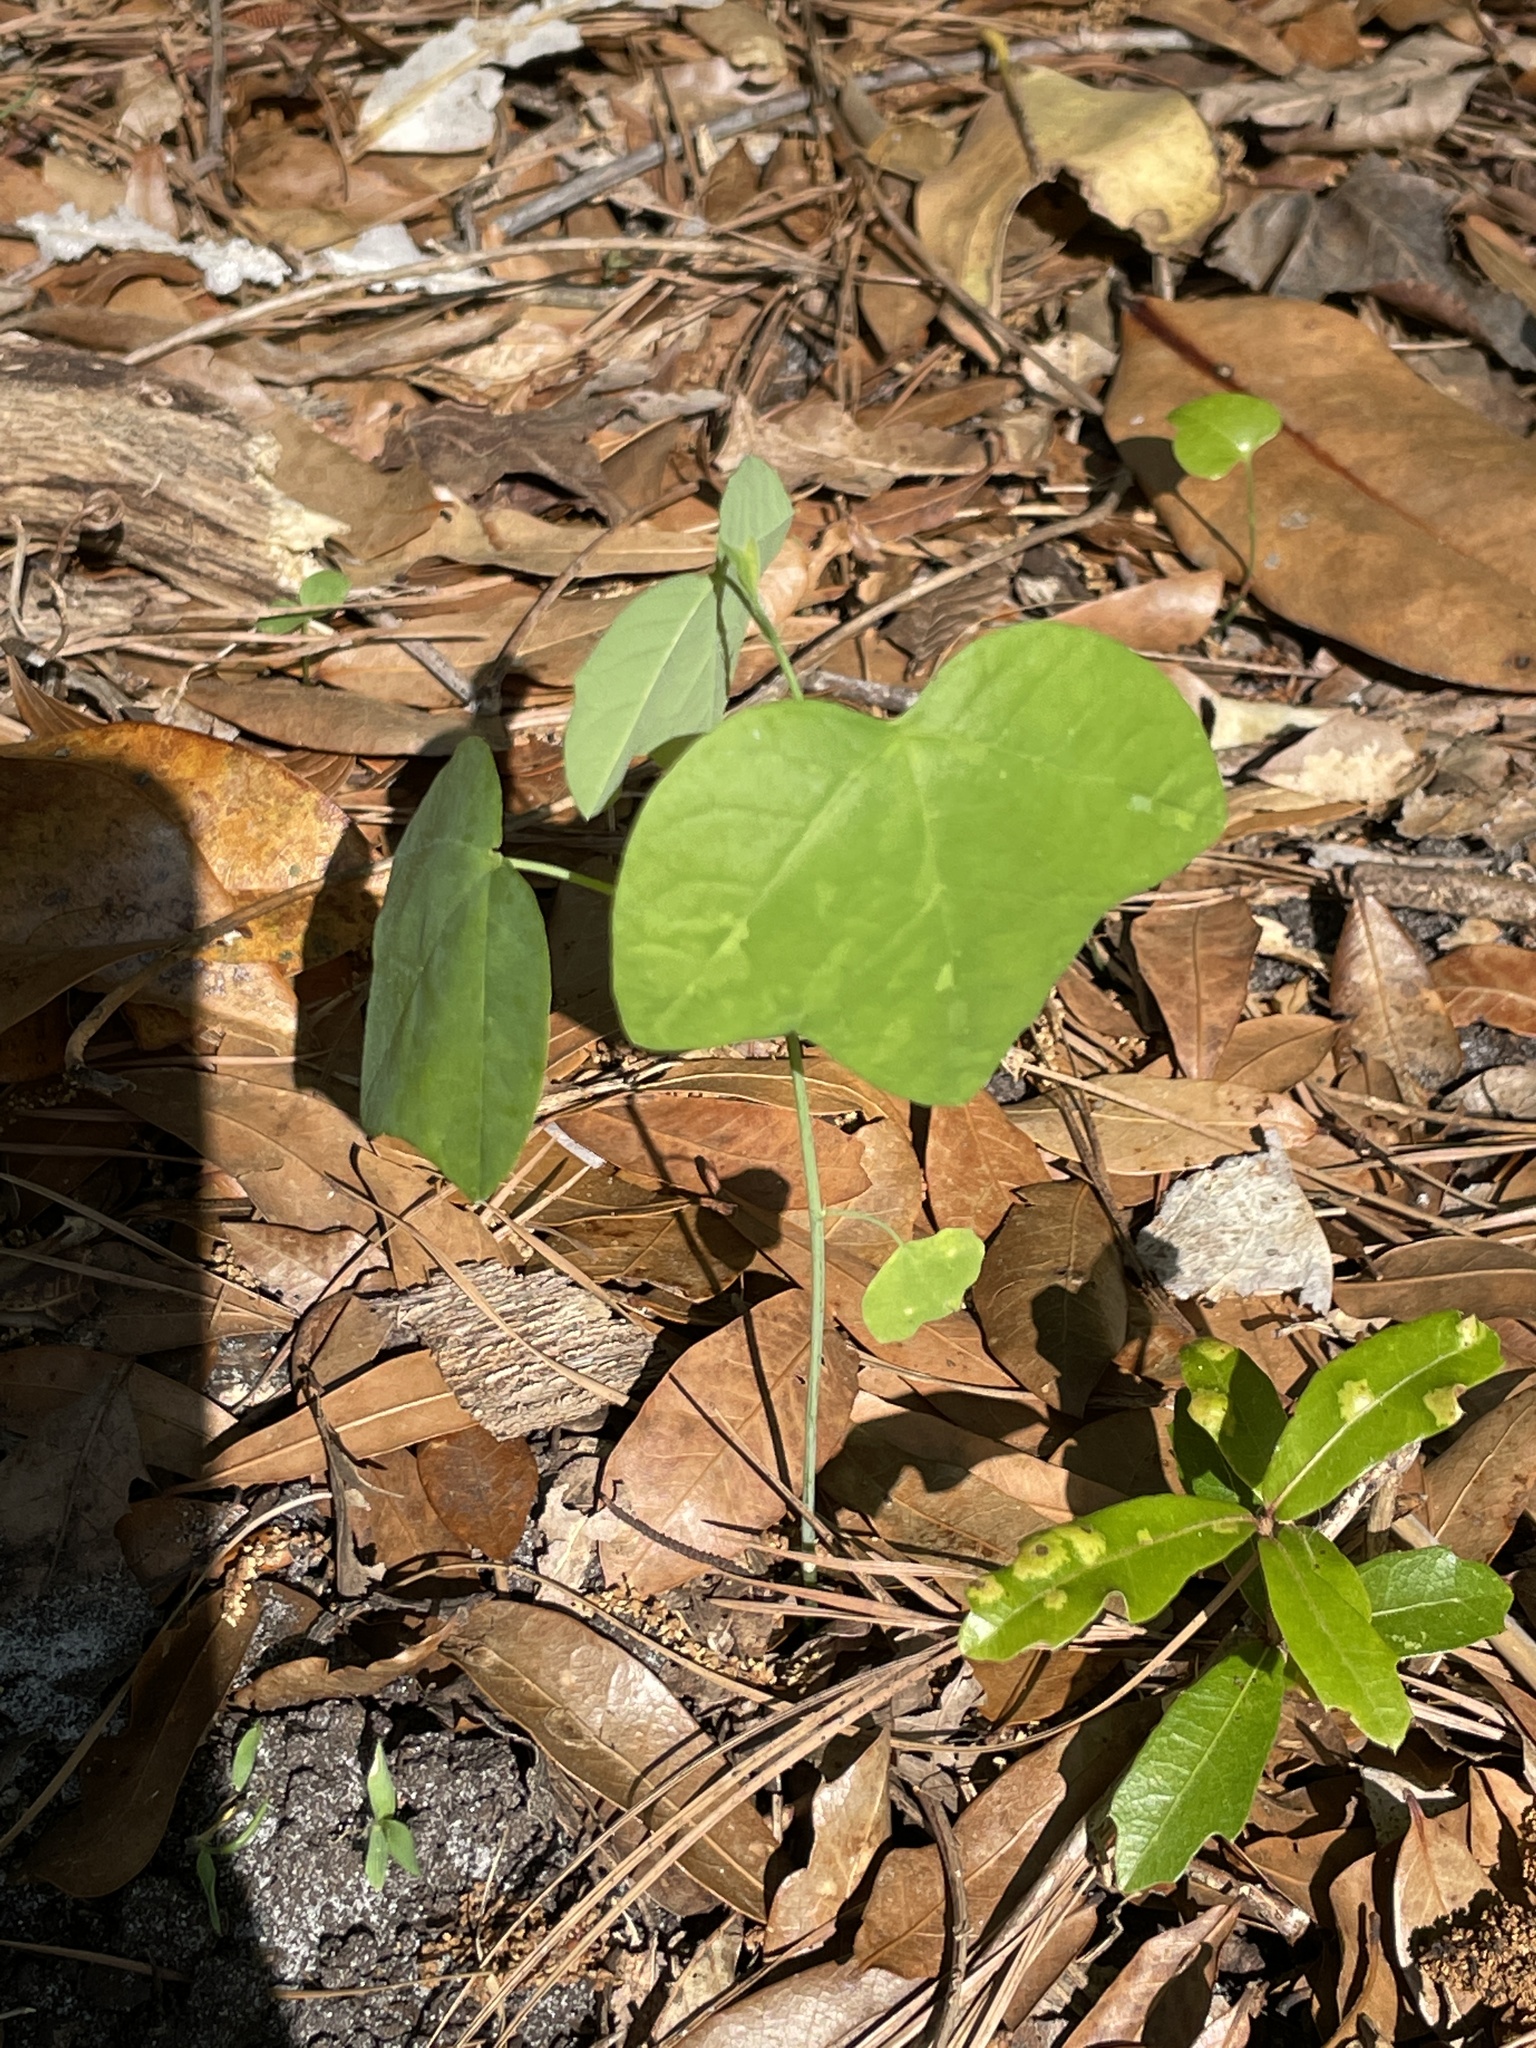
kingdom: Plantae
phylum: Tracheophyta
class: Magnoliopsida
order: Malpighiales
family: Passifloraceae
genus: Passiflora
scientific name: Passiflora lutea
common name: Yellow passionflower
